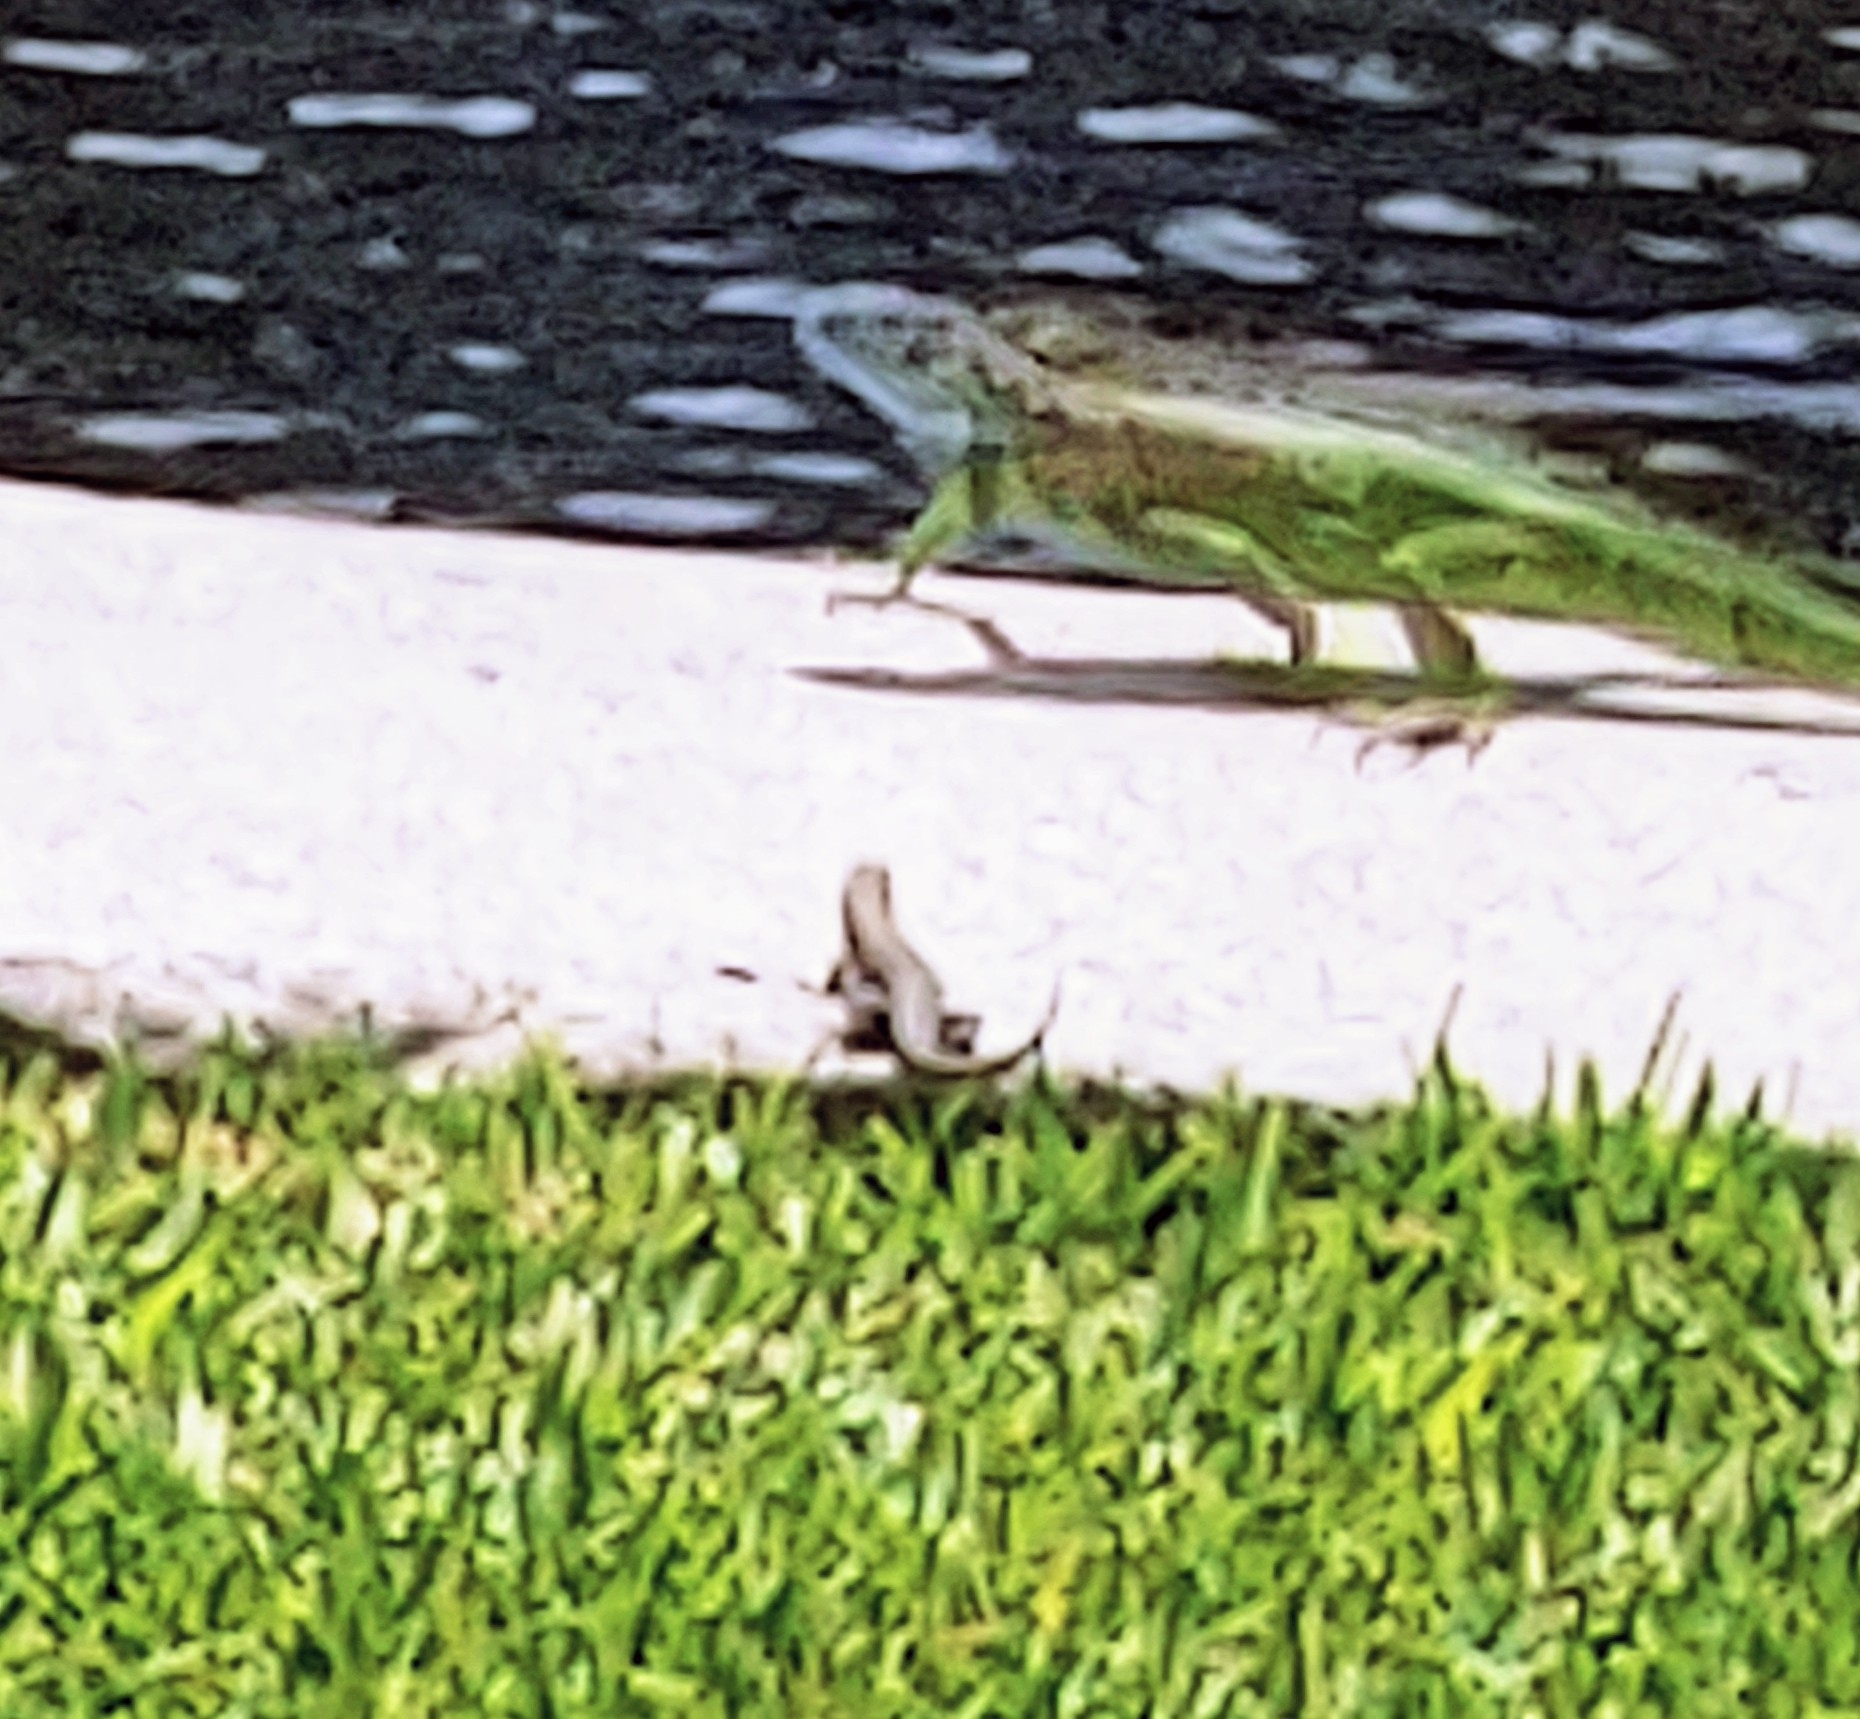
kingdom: Animalia
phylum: Chordata
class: Squamata
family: Leiocephalidae
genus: Leiocephalus
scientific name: Leiocephalus carinatus
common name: Northern curly-tailed lizard
